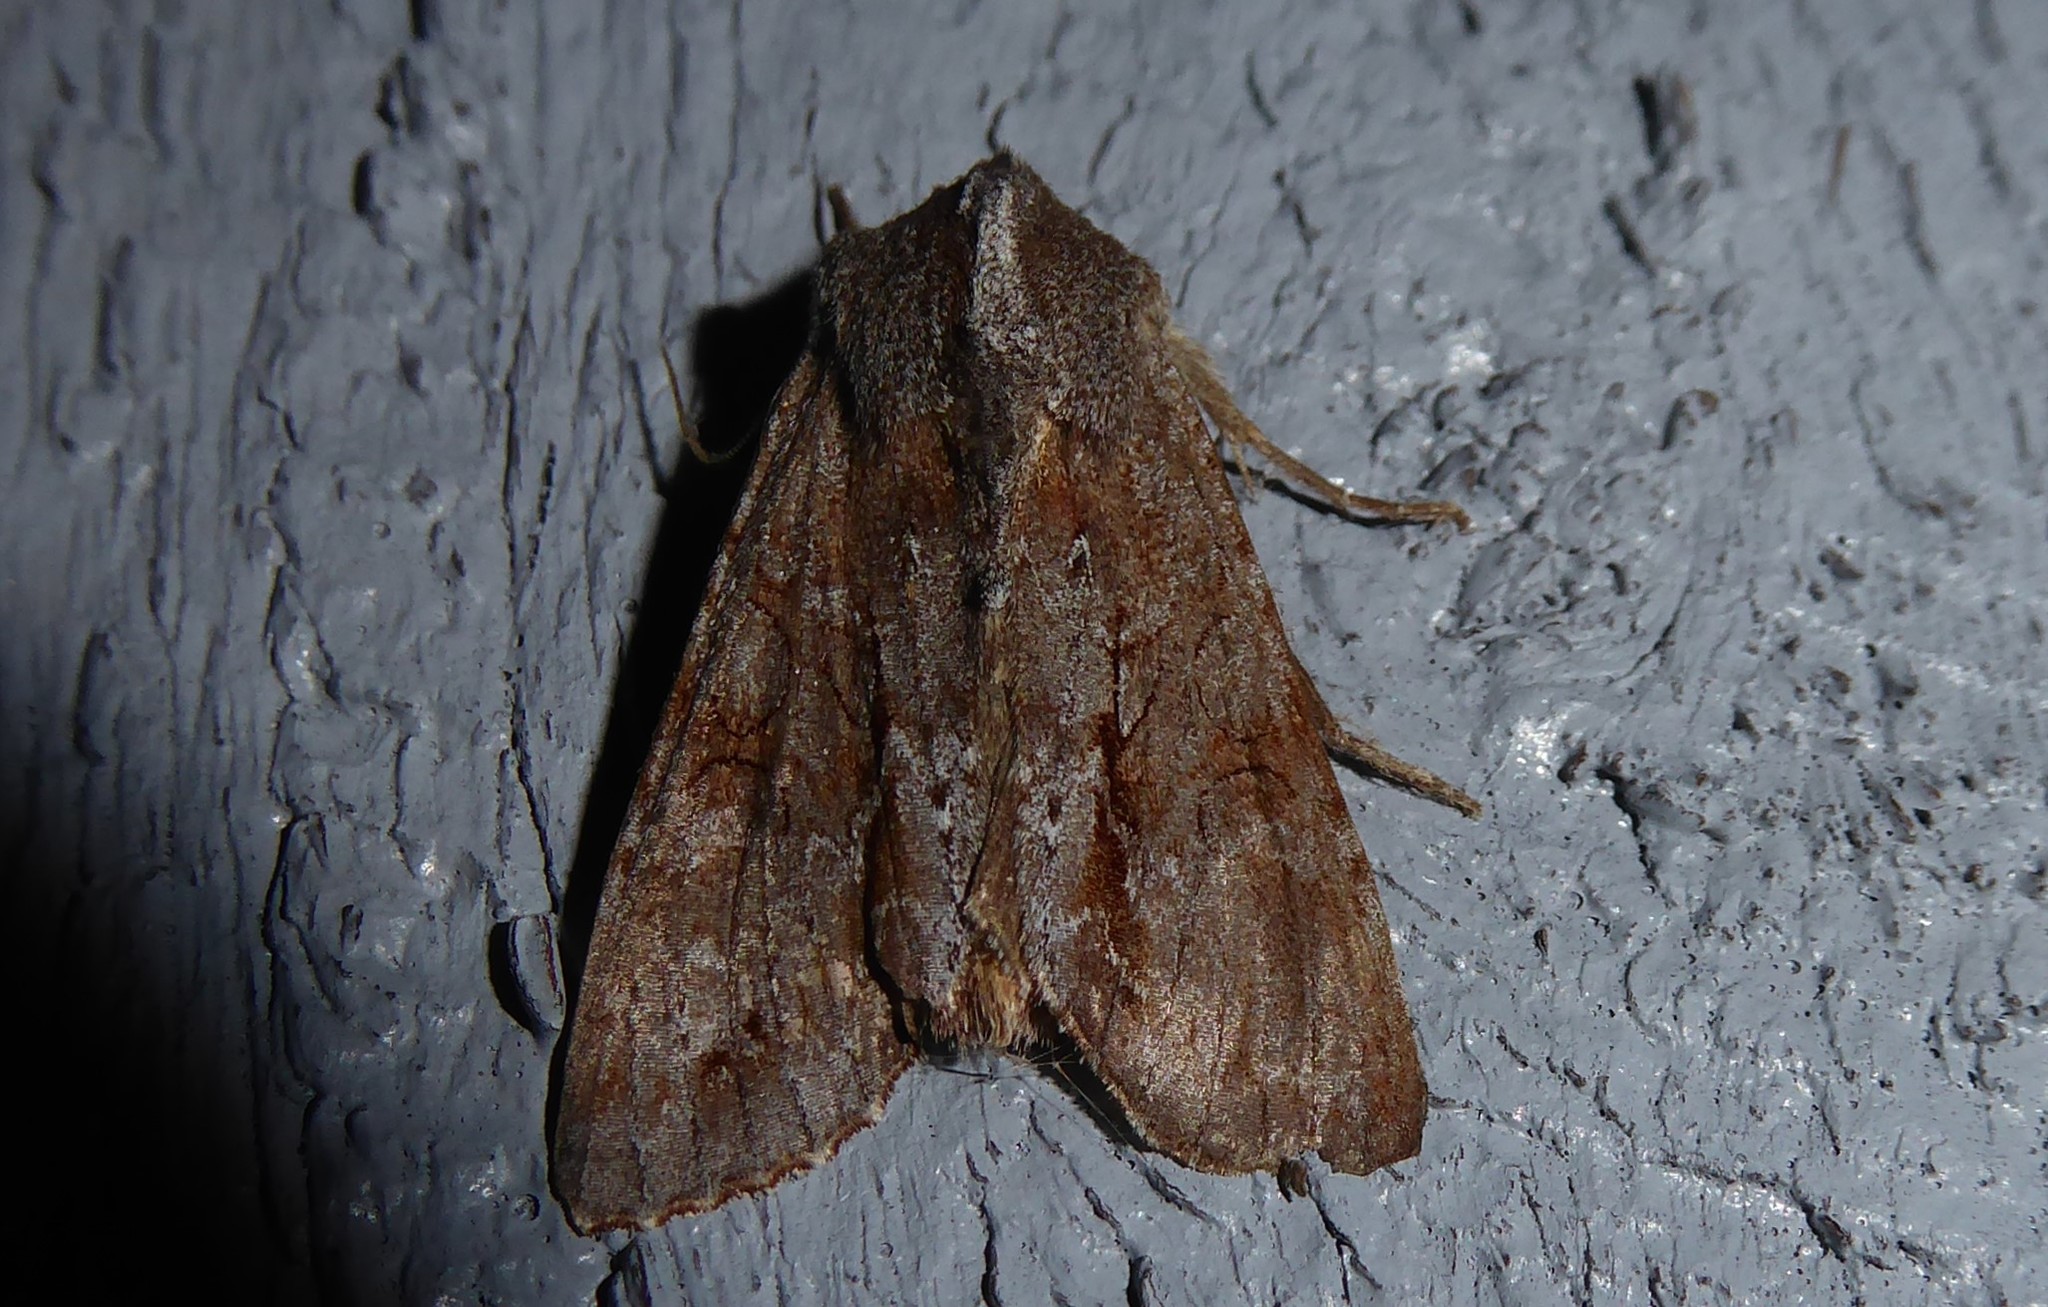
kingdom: Animalia
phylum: Arthropoda
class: Insecta
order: Lepidoptera
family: Noctuidae
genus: Ichneutica
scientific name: Ichneutica
